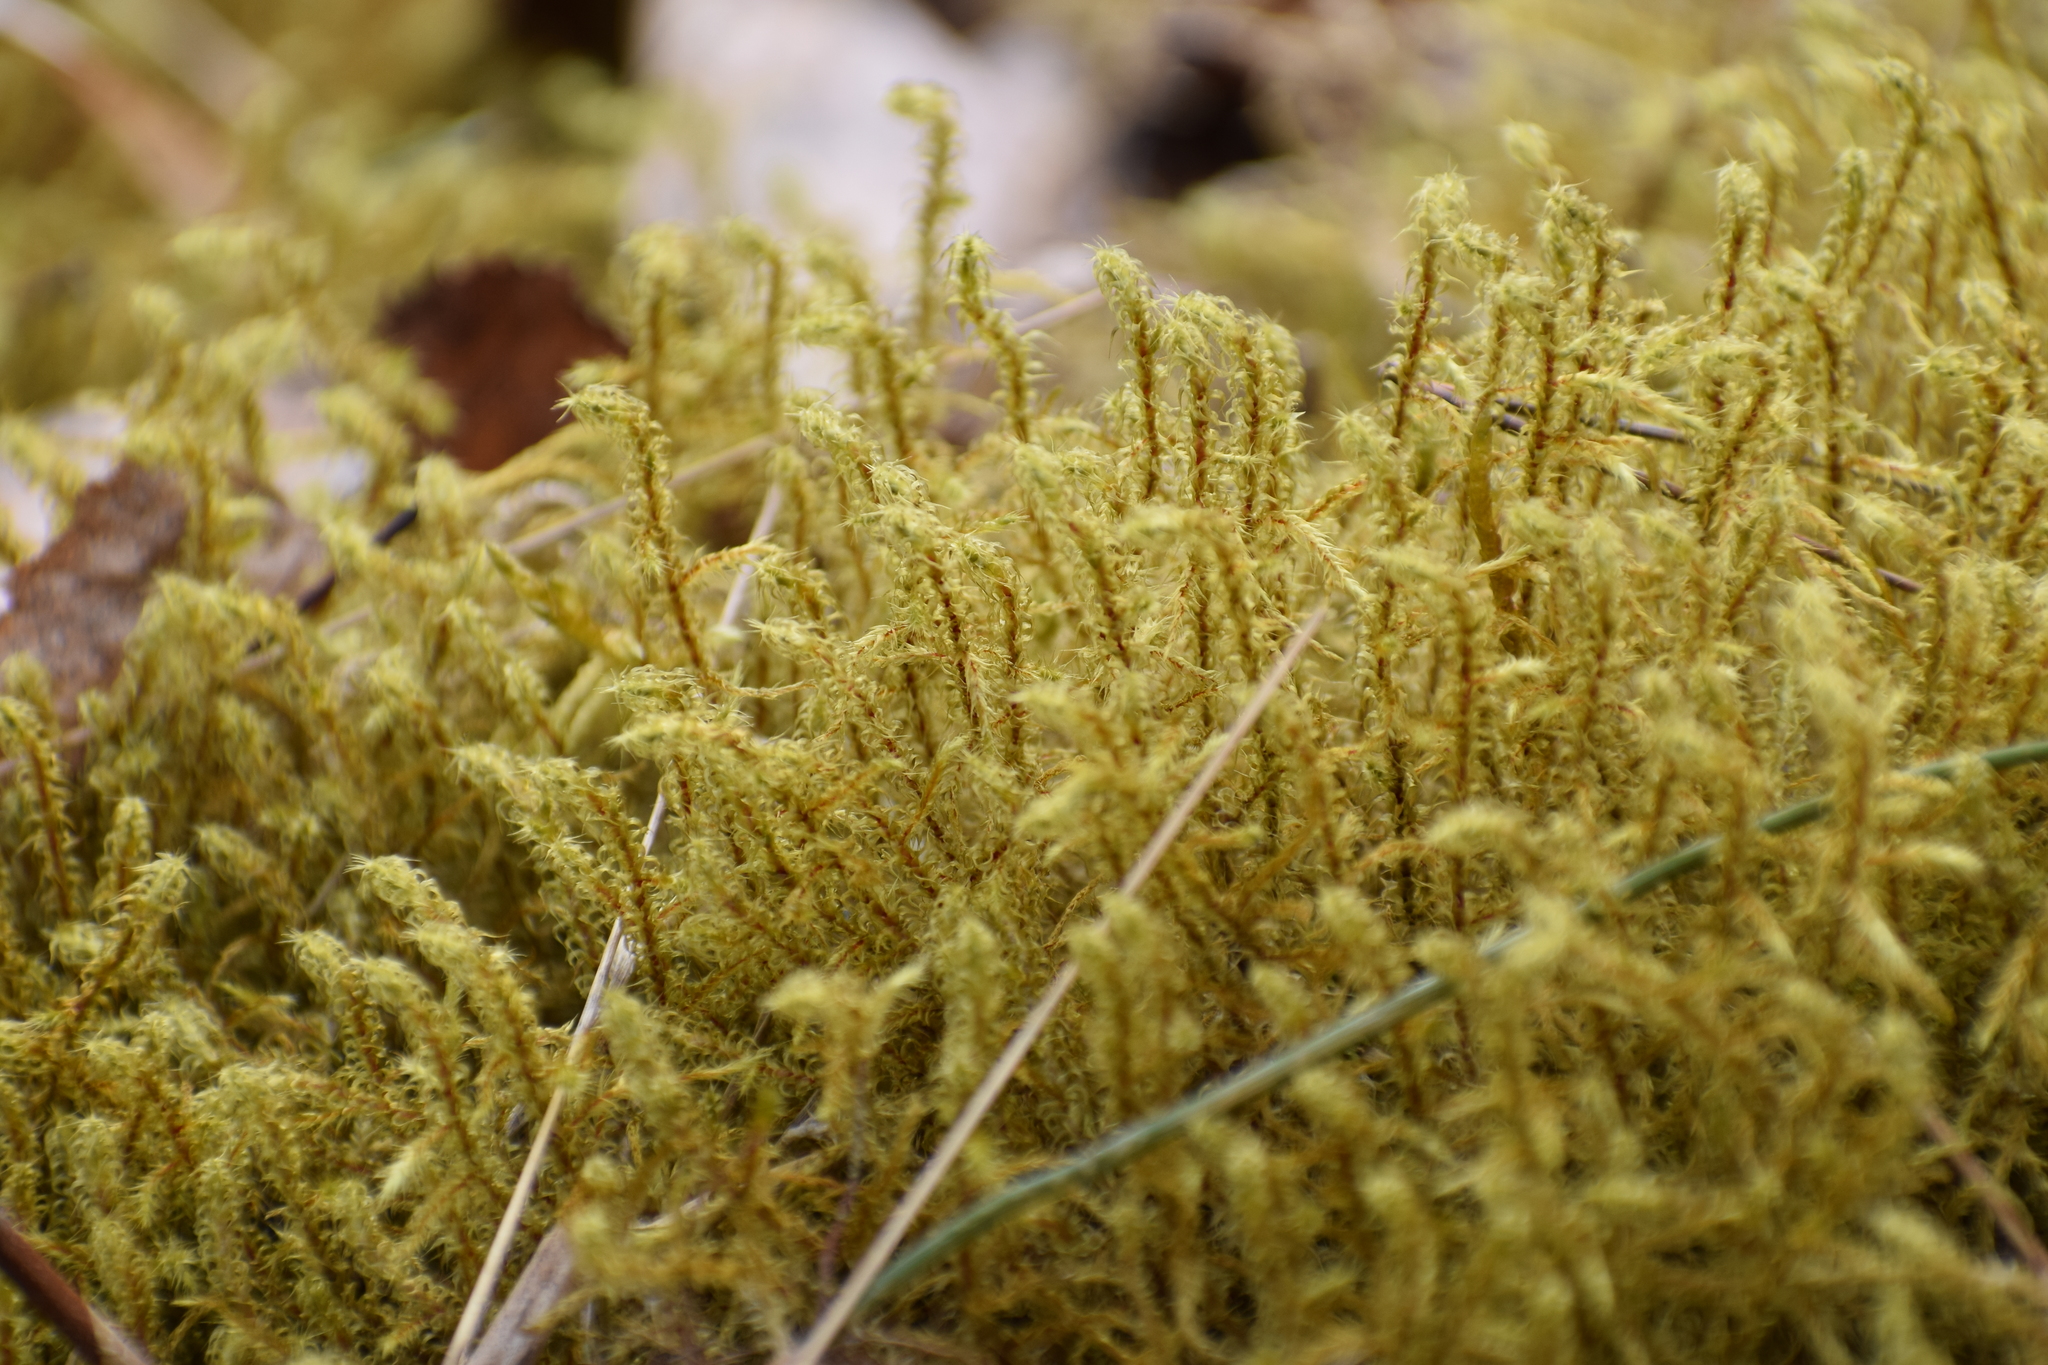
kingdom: Plantae
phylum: Bryophyta
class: Bryopsida
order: Hypnales
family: Hylocomiaceae
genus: Rhytidiadelphus
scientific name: Rhytidiadelphus squarrosus
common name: Springy turf-moss
